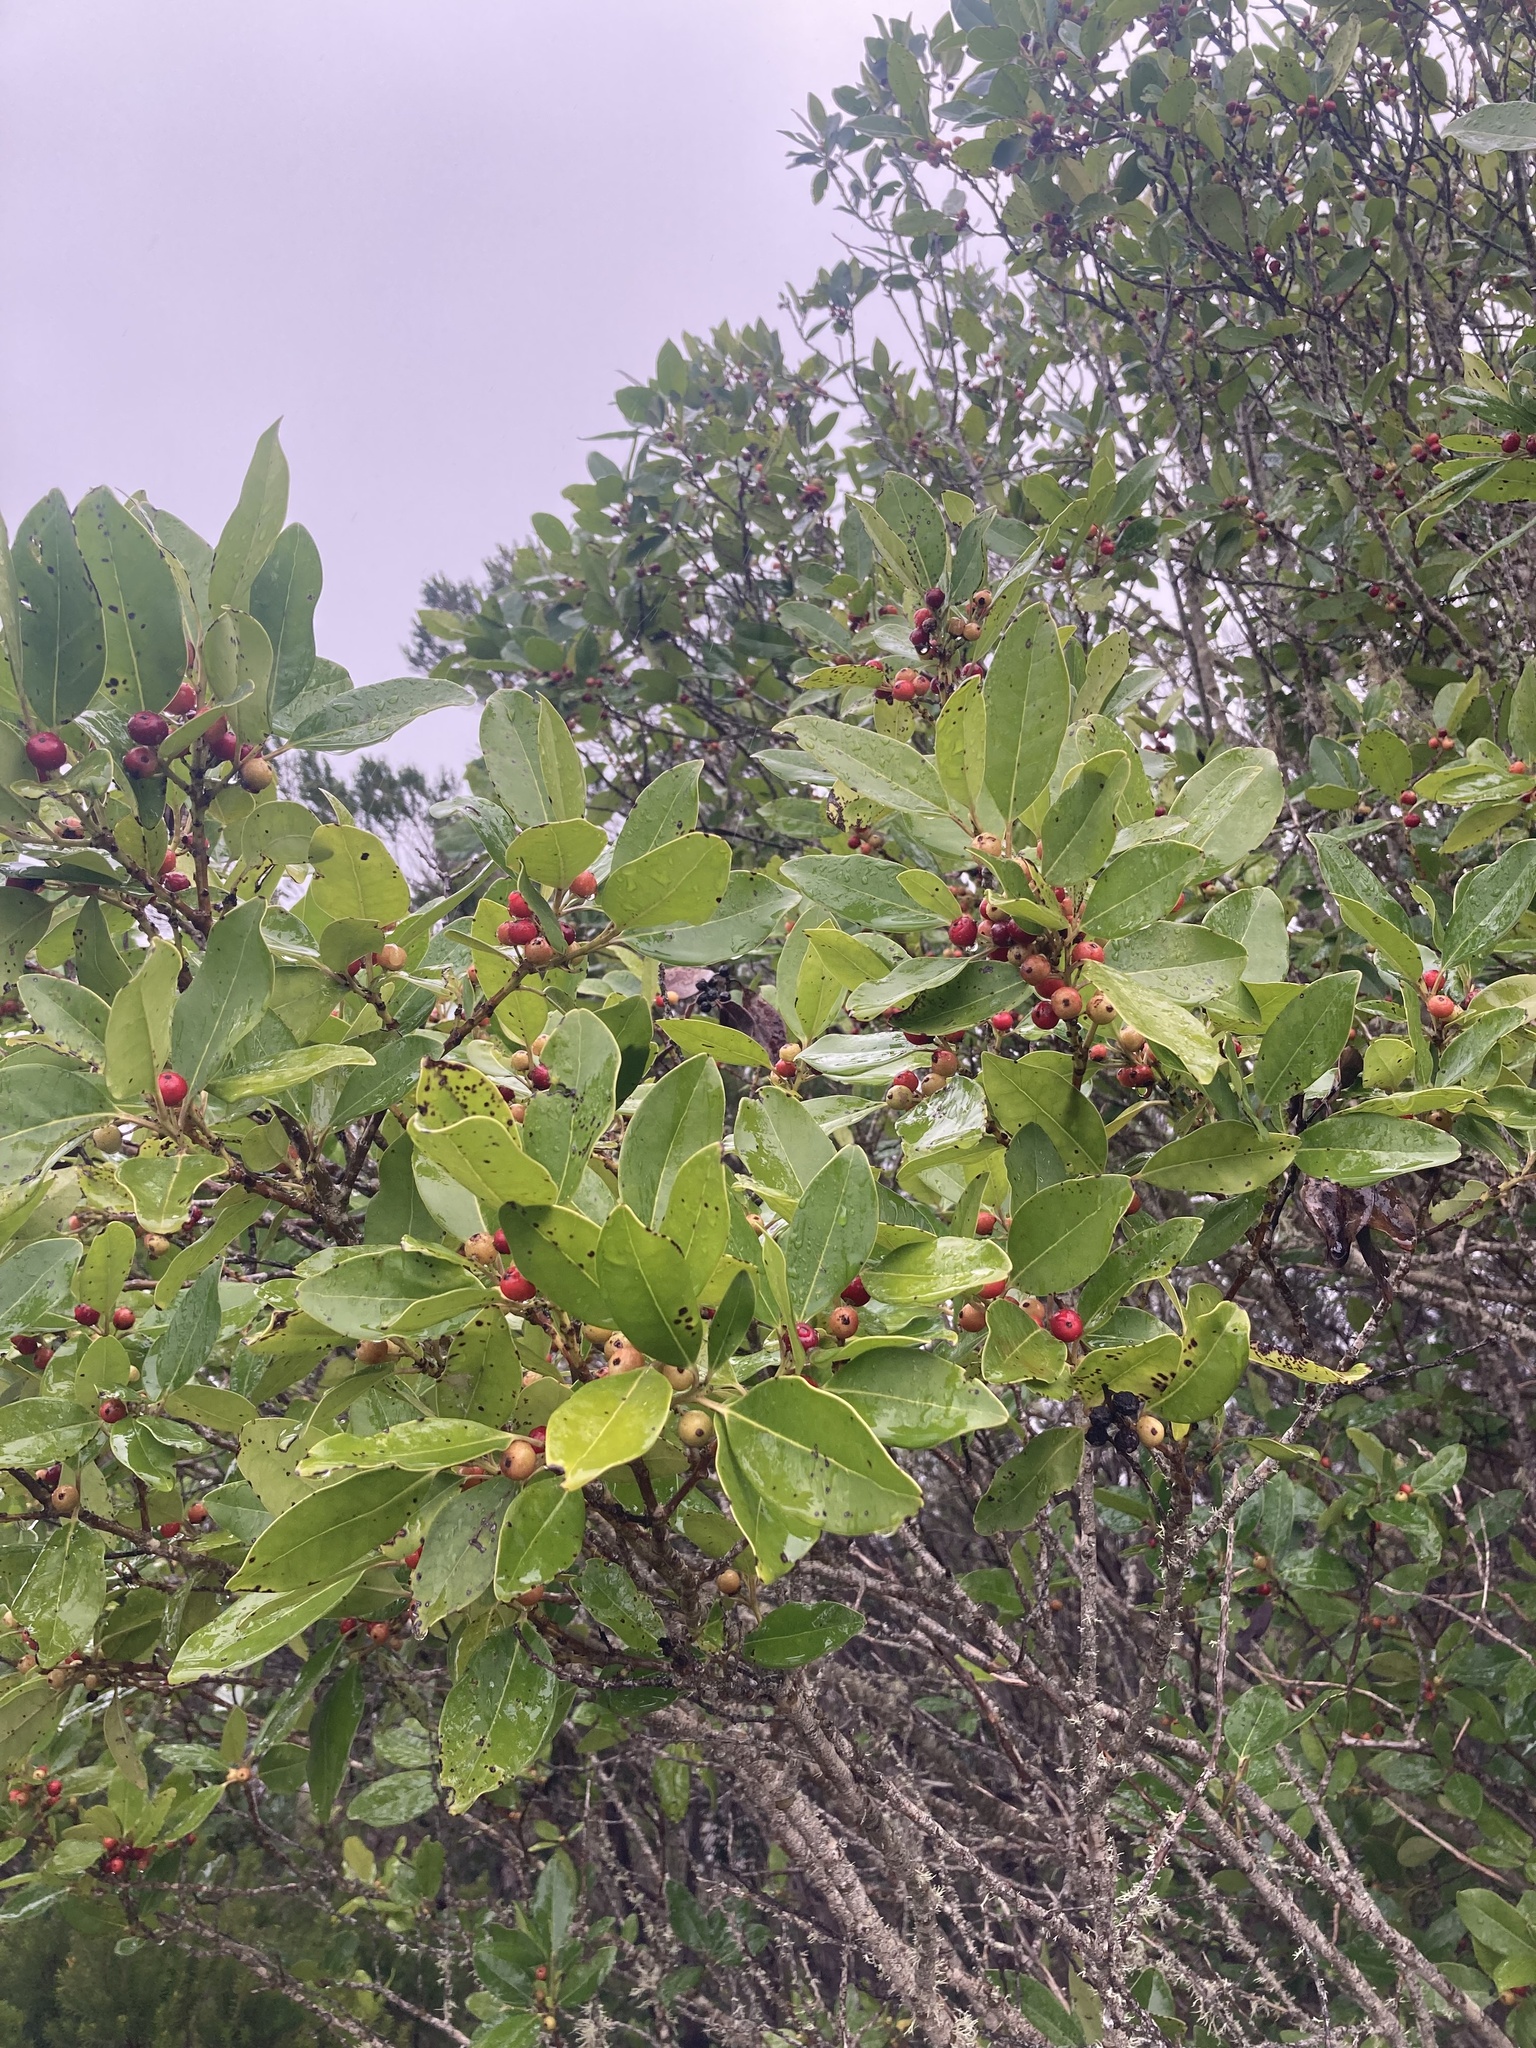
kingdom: Plantae
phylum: Tracheophyta
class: Magnoliopsida
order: Aquifoliales
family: Aquifoliaceae
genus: Ilex
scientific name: Ilex canariensis
